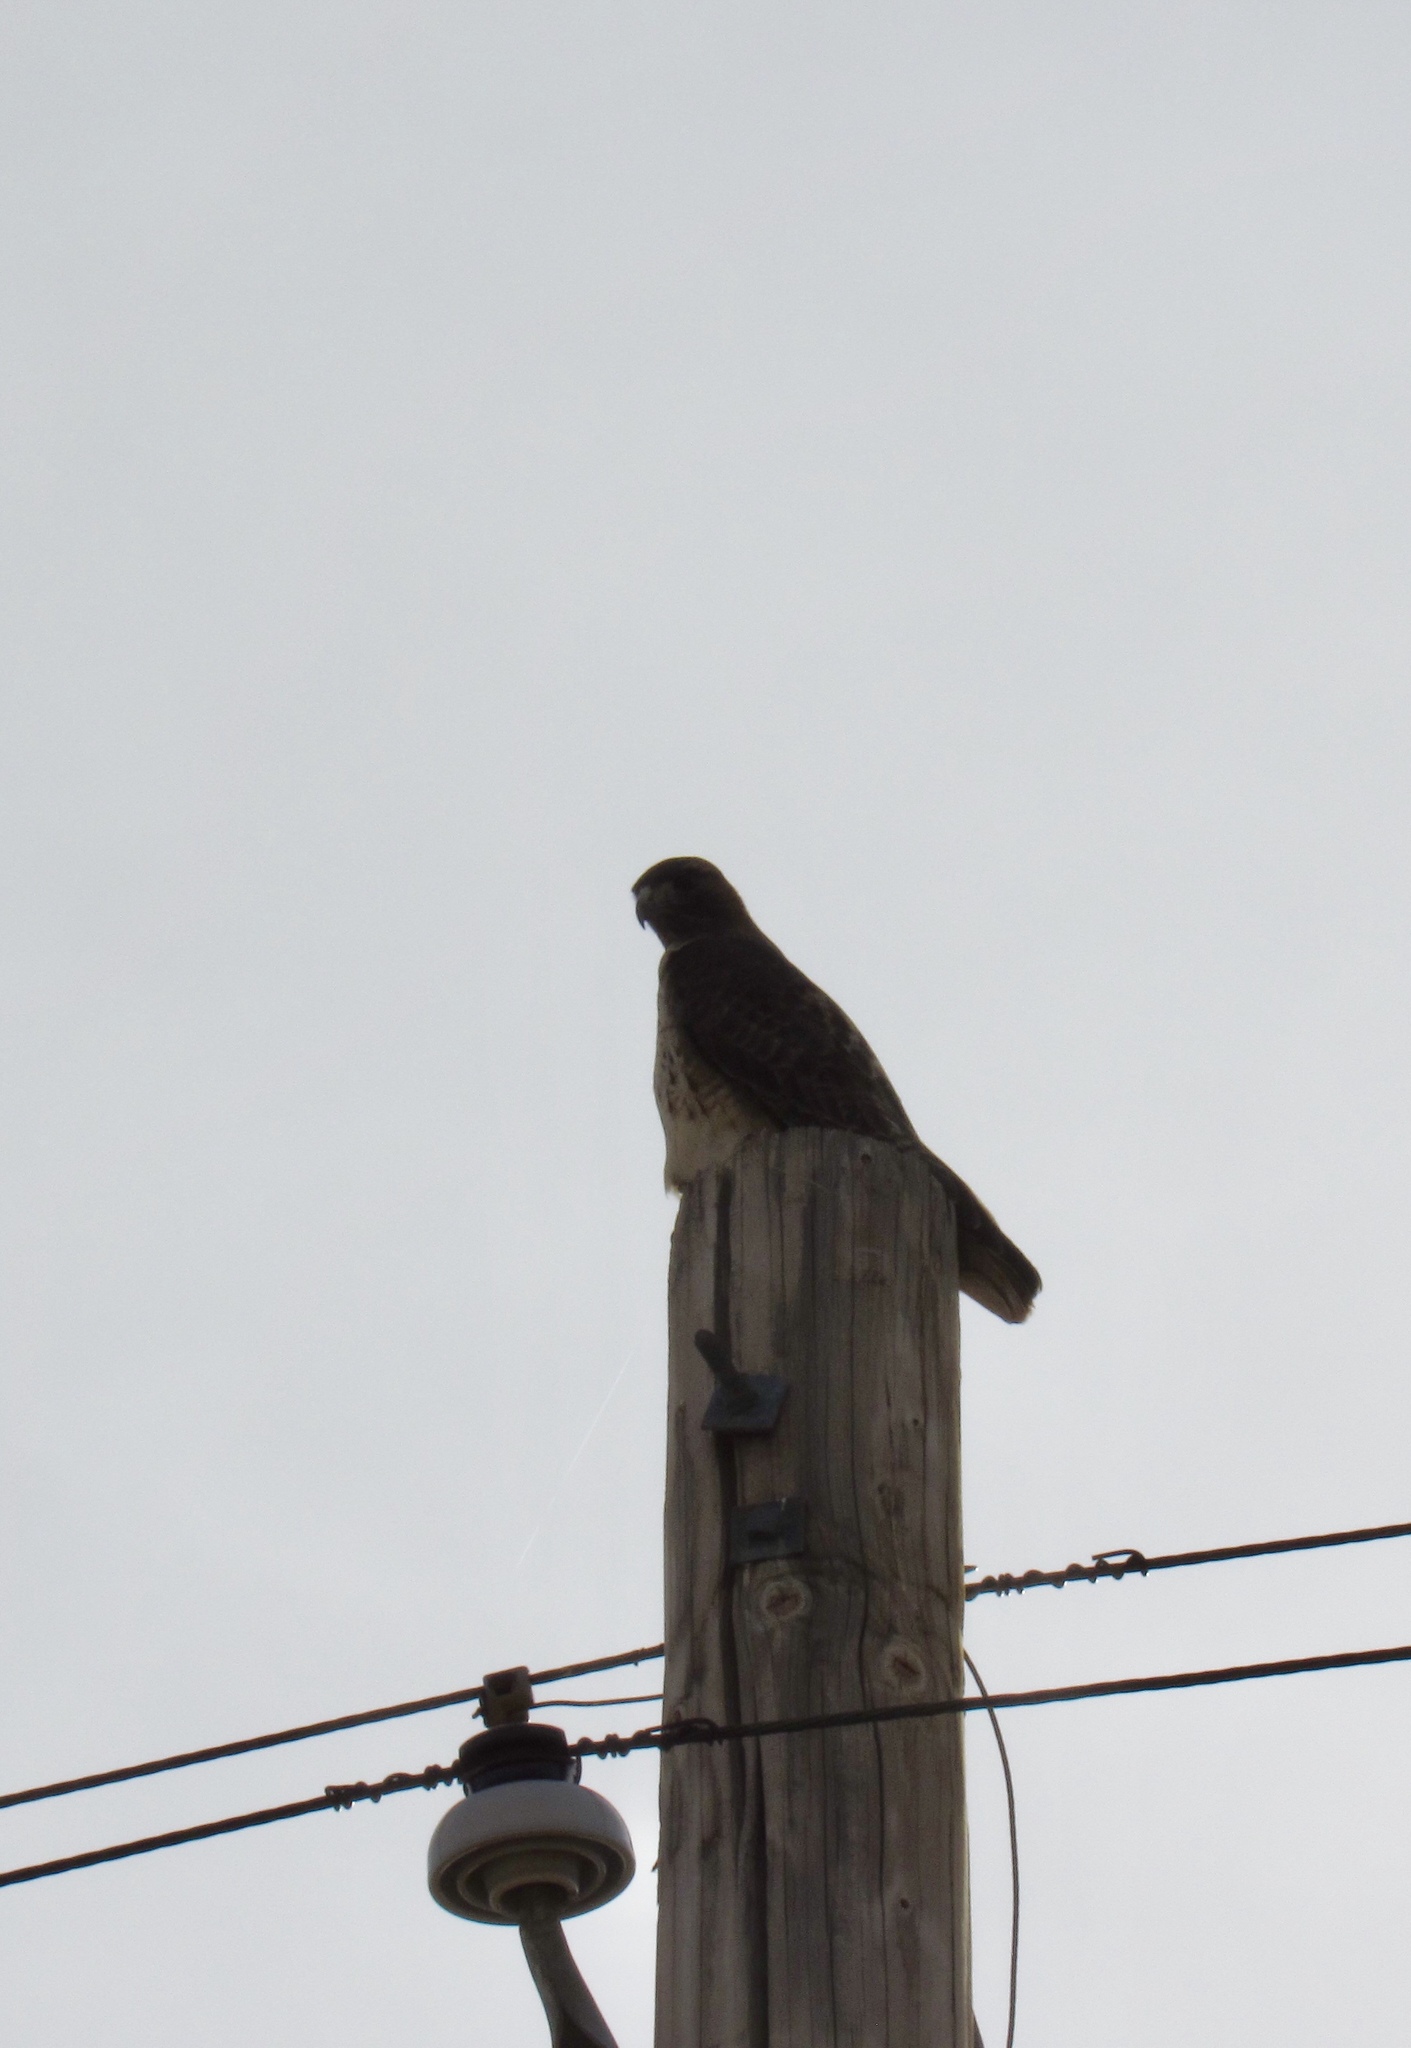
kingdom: Animalia
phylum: Chordata
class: Aves
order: Accipitriformes
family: Accipitridae
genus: Buteo
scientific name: Buteo jamaicensis
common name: Red-tailed hawk
